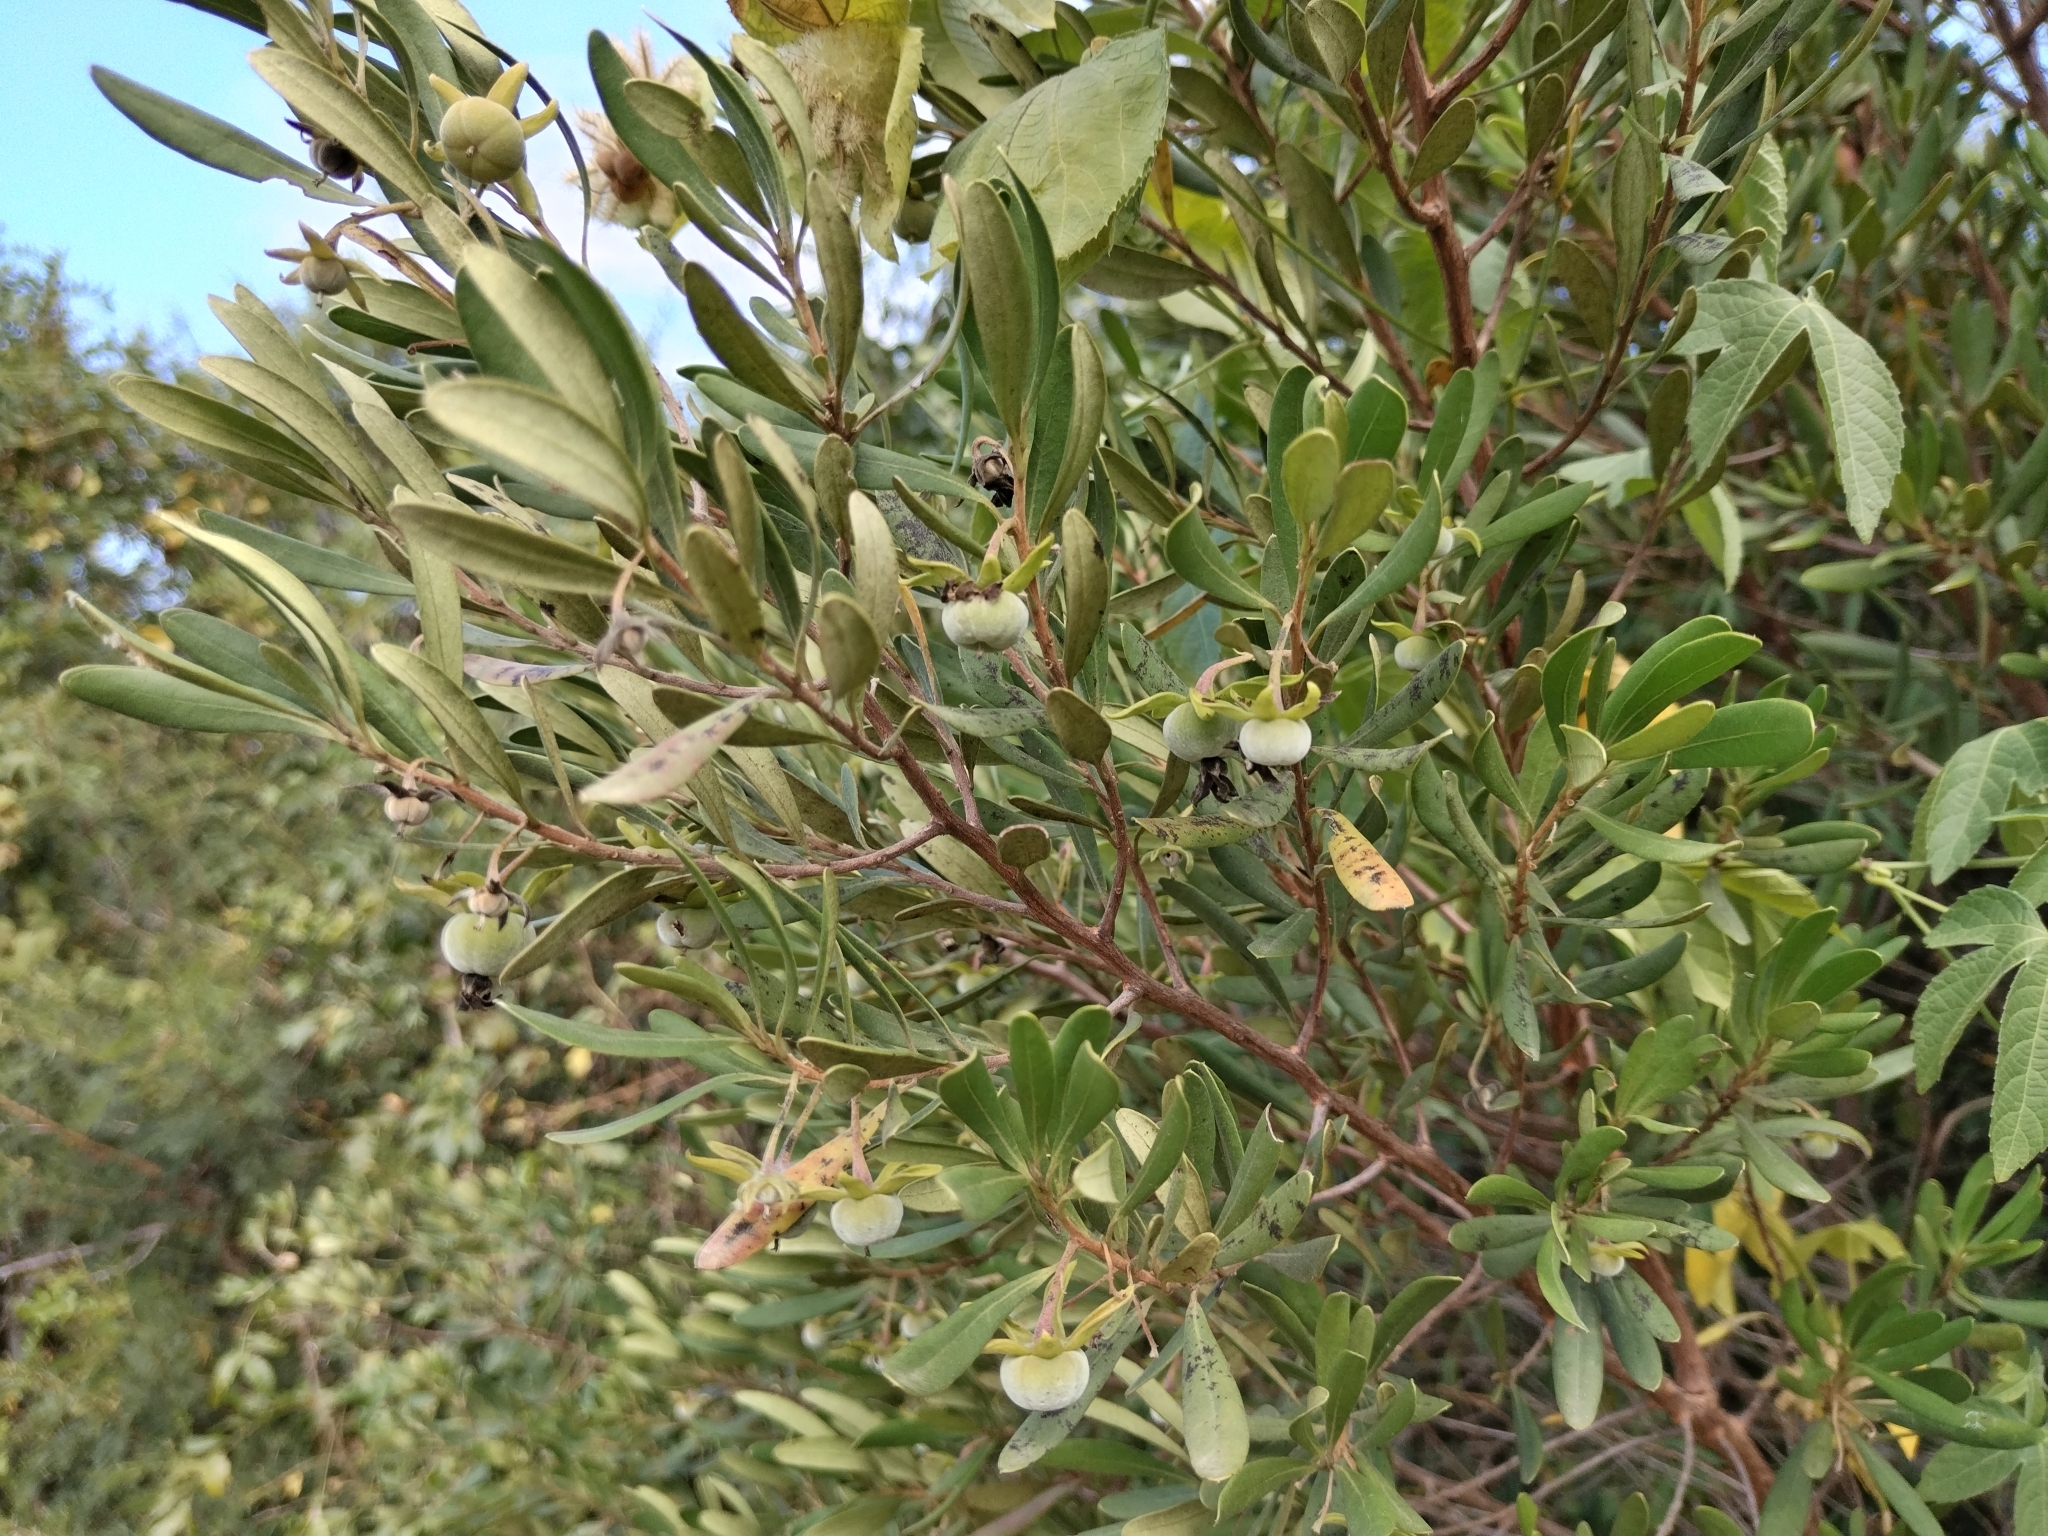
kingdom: Plantae
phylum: Tracheophyta
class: Magnoliopsida
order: Ericales
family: Ebenaceae
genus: Diospyros
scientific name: Diospyros dichrophylla
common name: Common star-apple
